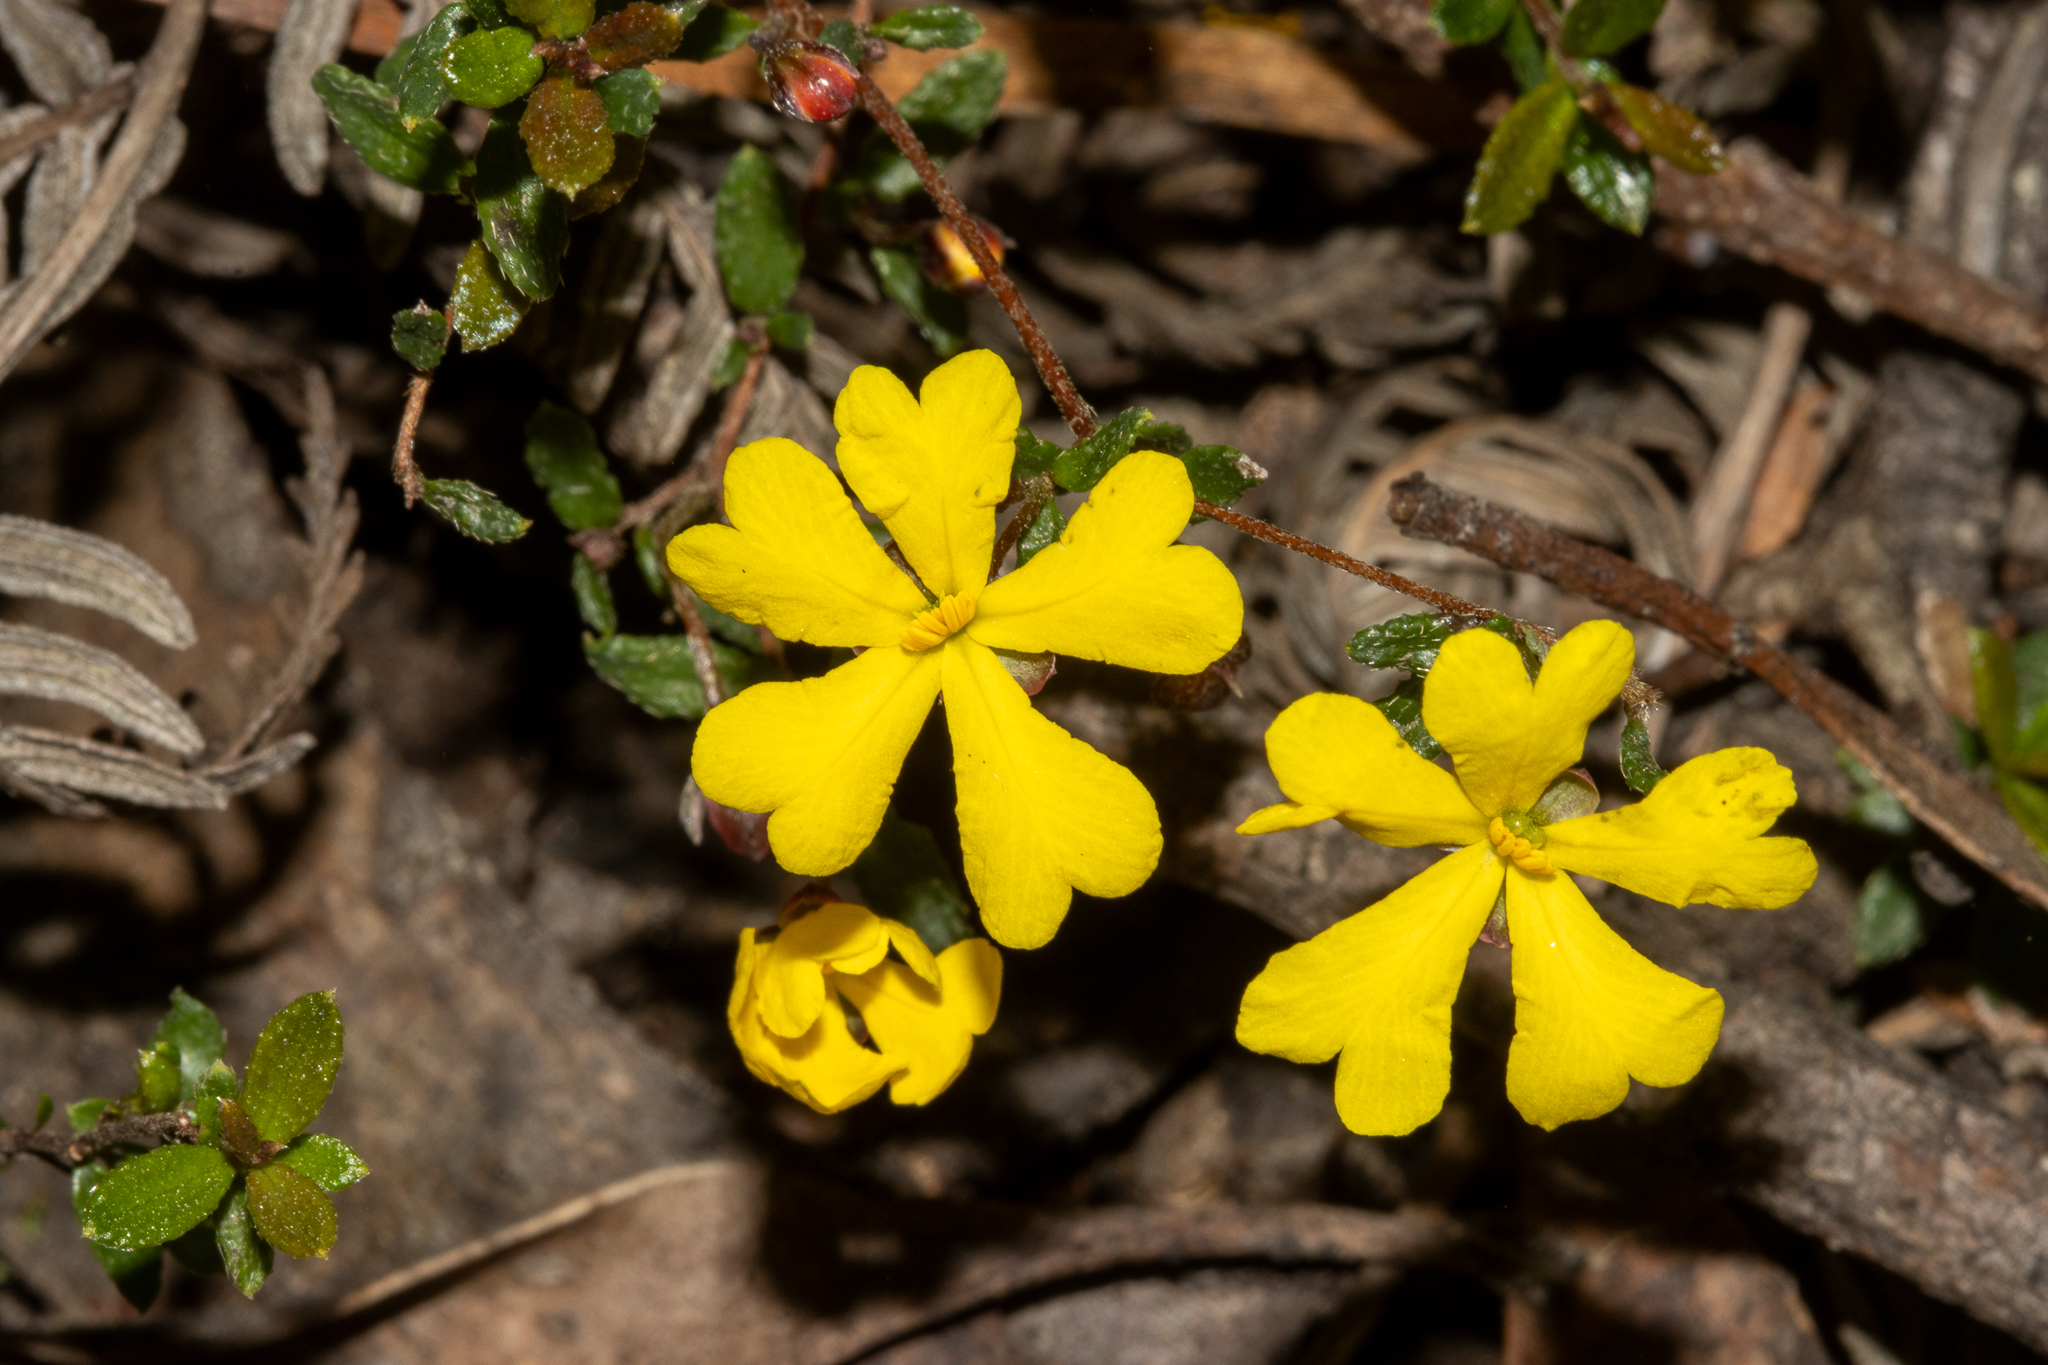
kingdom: Plantae
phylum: Tracheophyta
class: Magnoliopsida
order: Dilleniales
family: Dilleniaceae
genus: Hibbertia
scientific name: Hibbertia appressa
